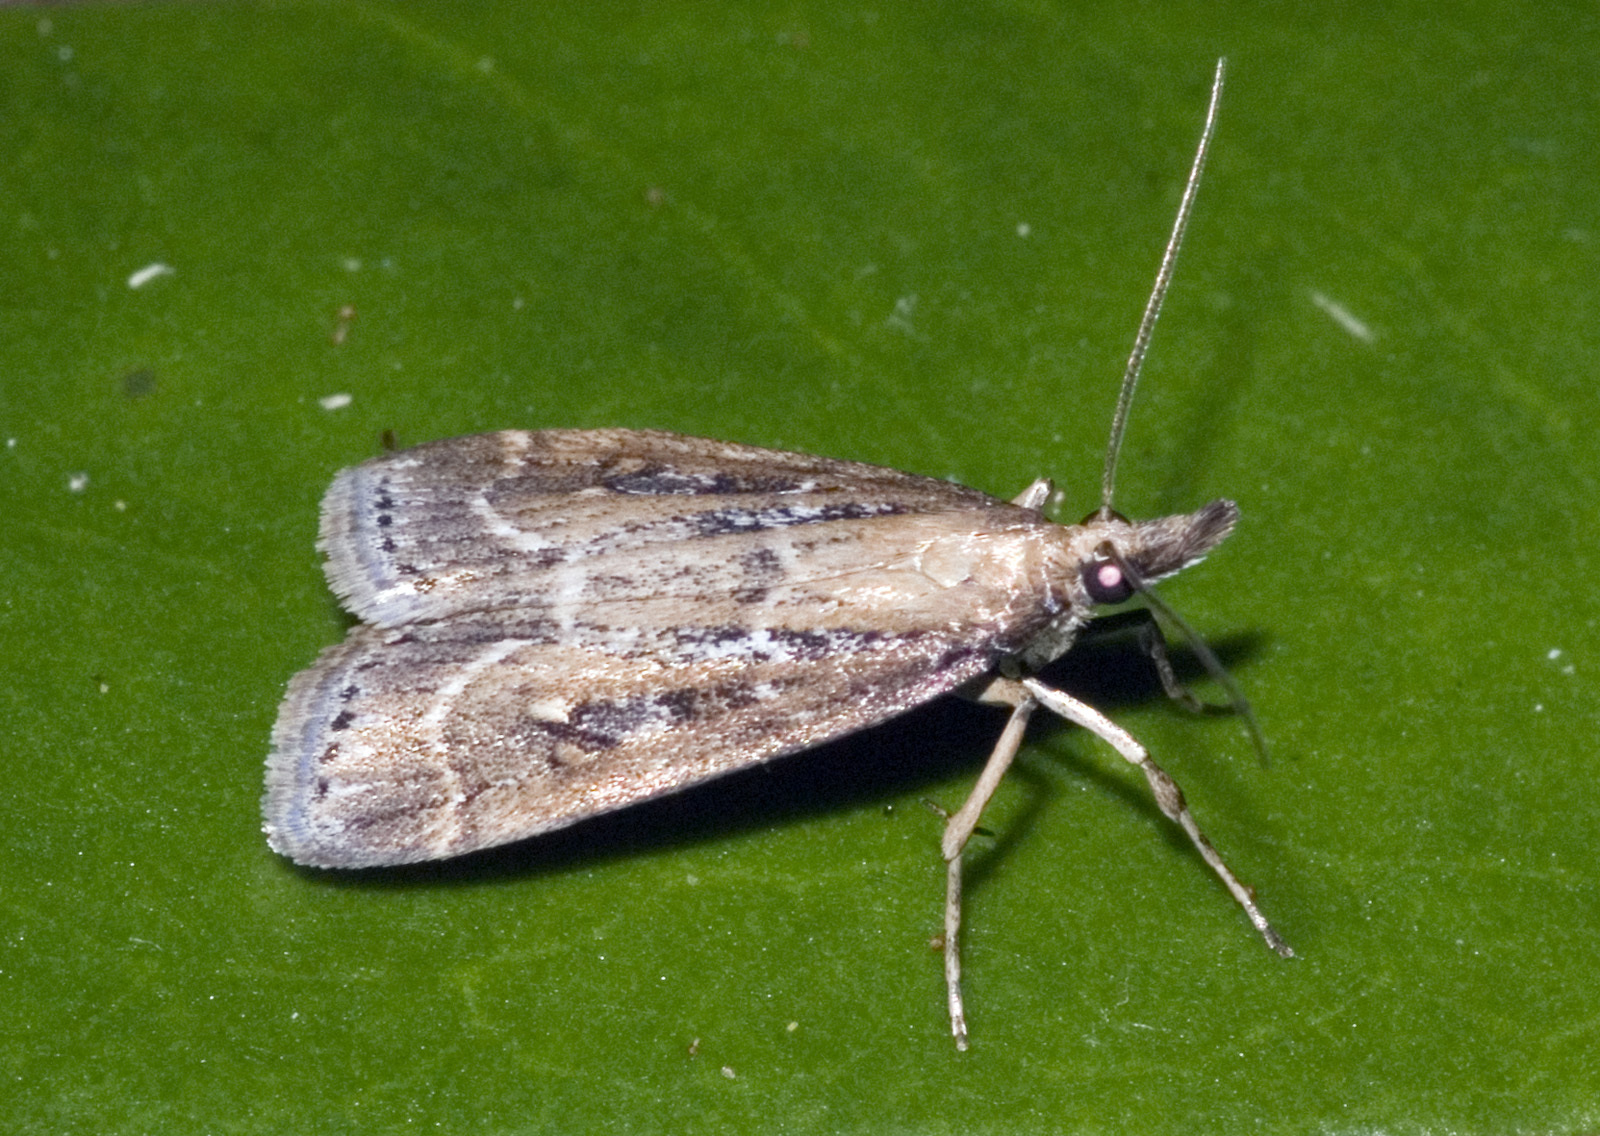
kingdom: Animalia
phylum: Arthropoda
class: Insecta
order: Lepidoptera
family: Crambidae
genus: Eudonia
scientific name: Eudonia octophora
